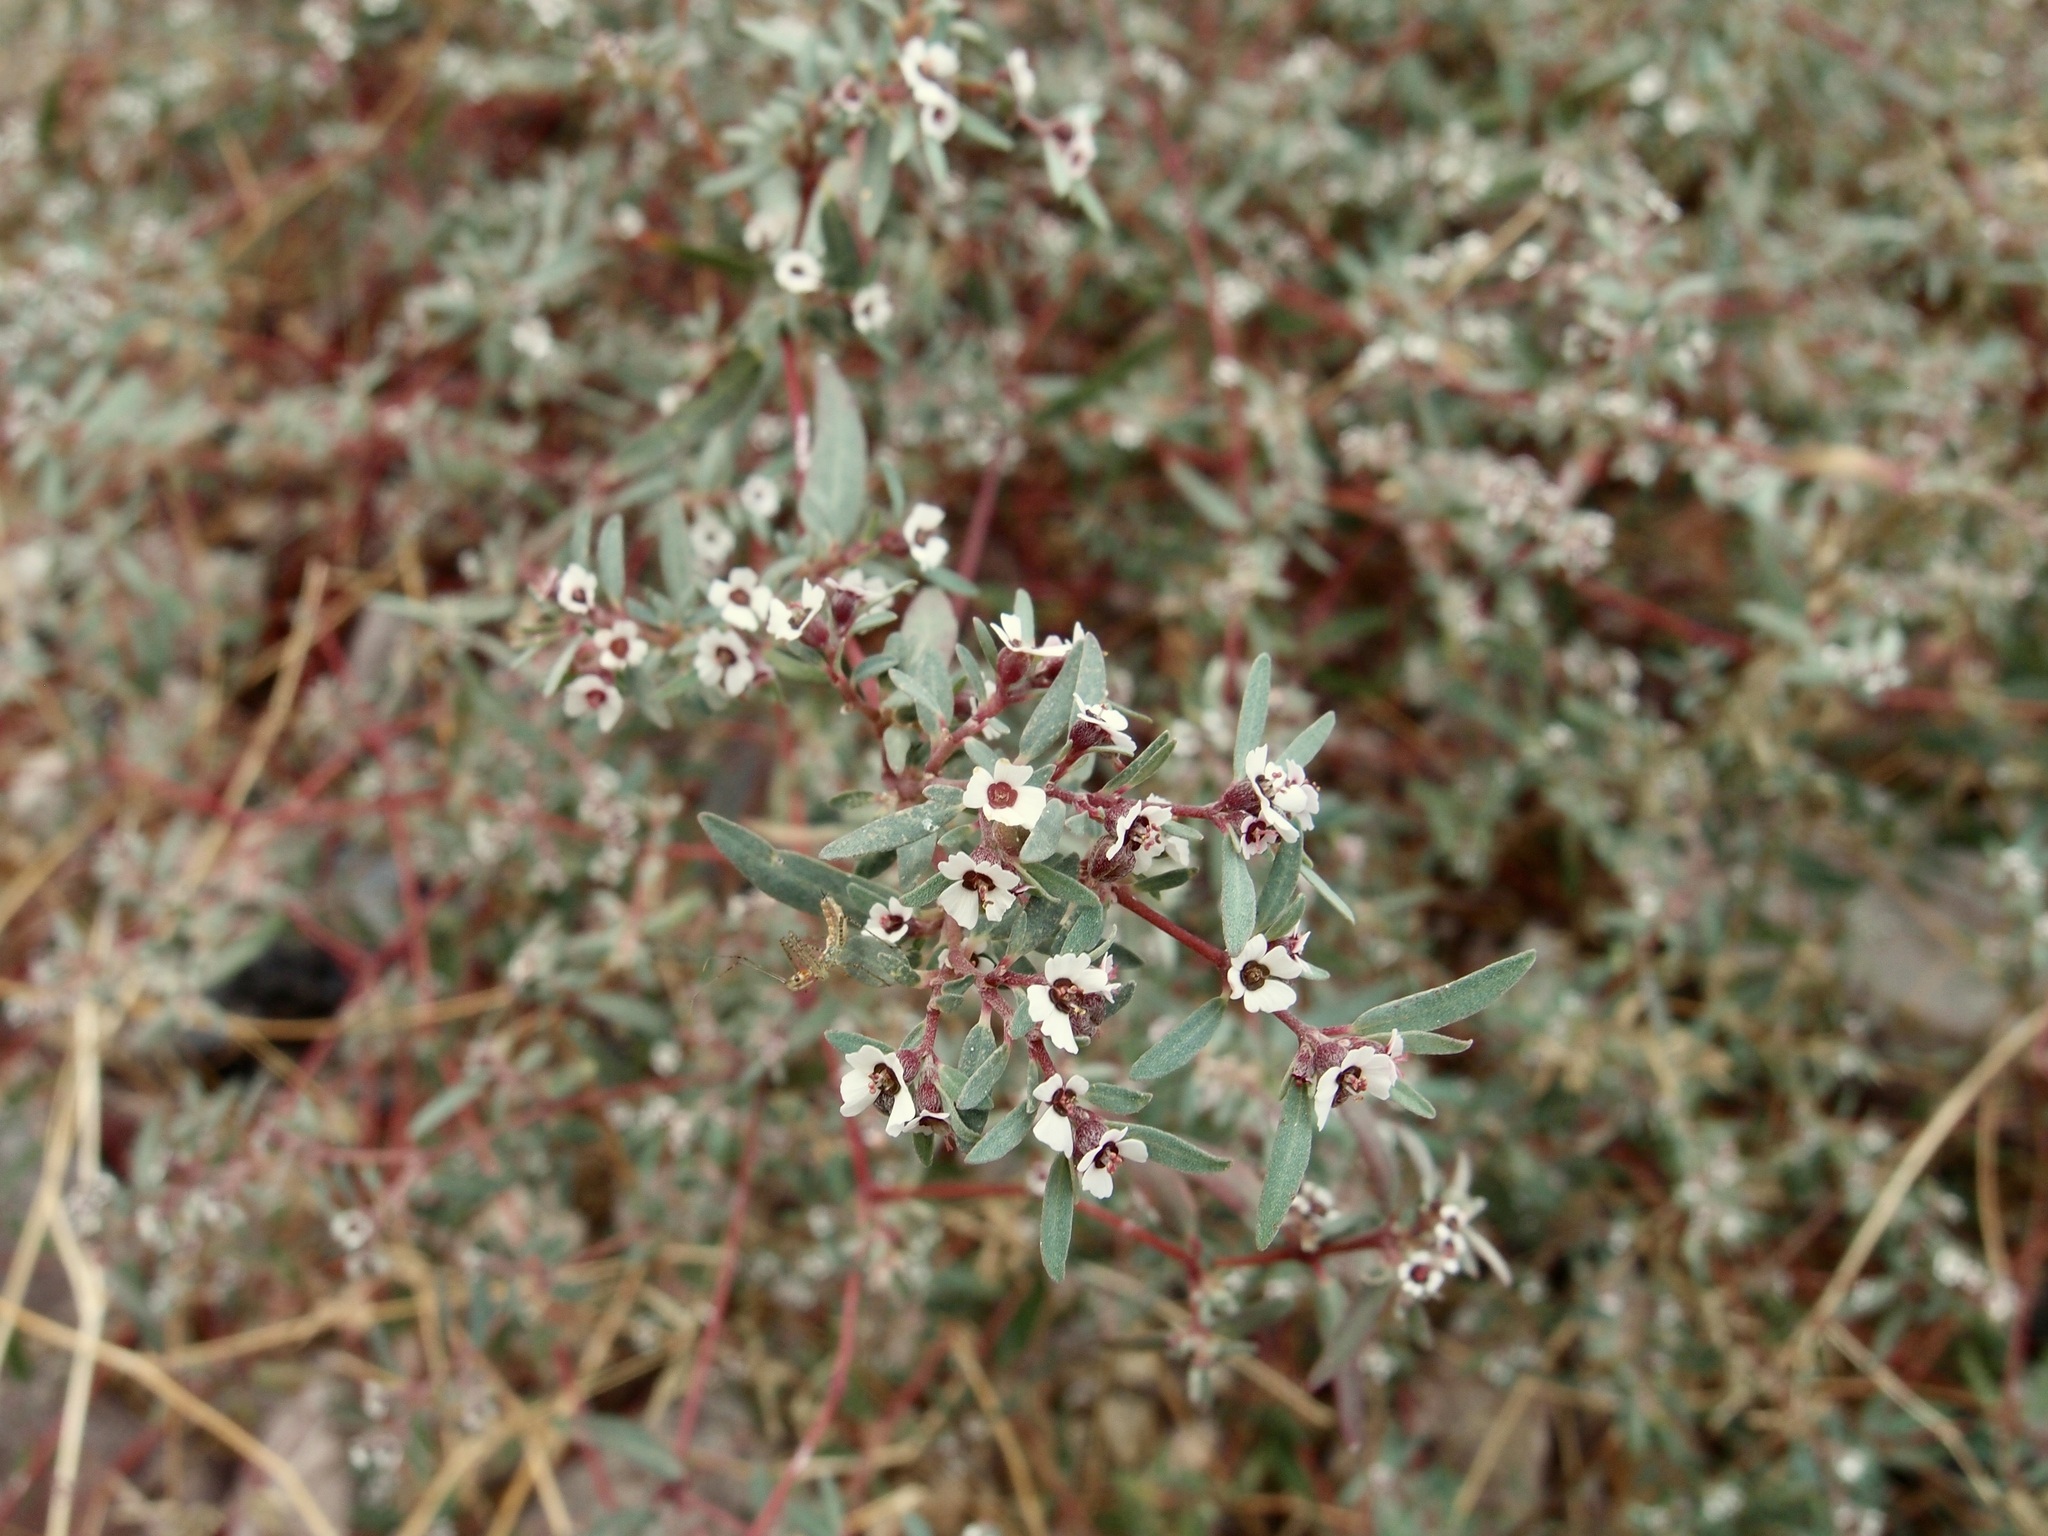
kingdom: Plantae
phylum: Tracheophyta
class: Magnoliopsida
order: Malpighiales
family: Euphorbiaceae
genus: Euphorbia
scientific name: Euphorbia pediculifera
